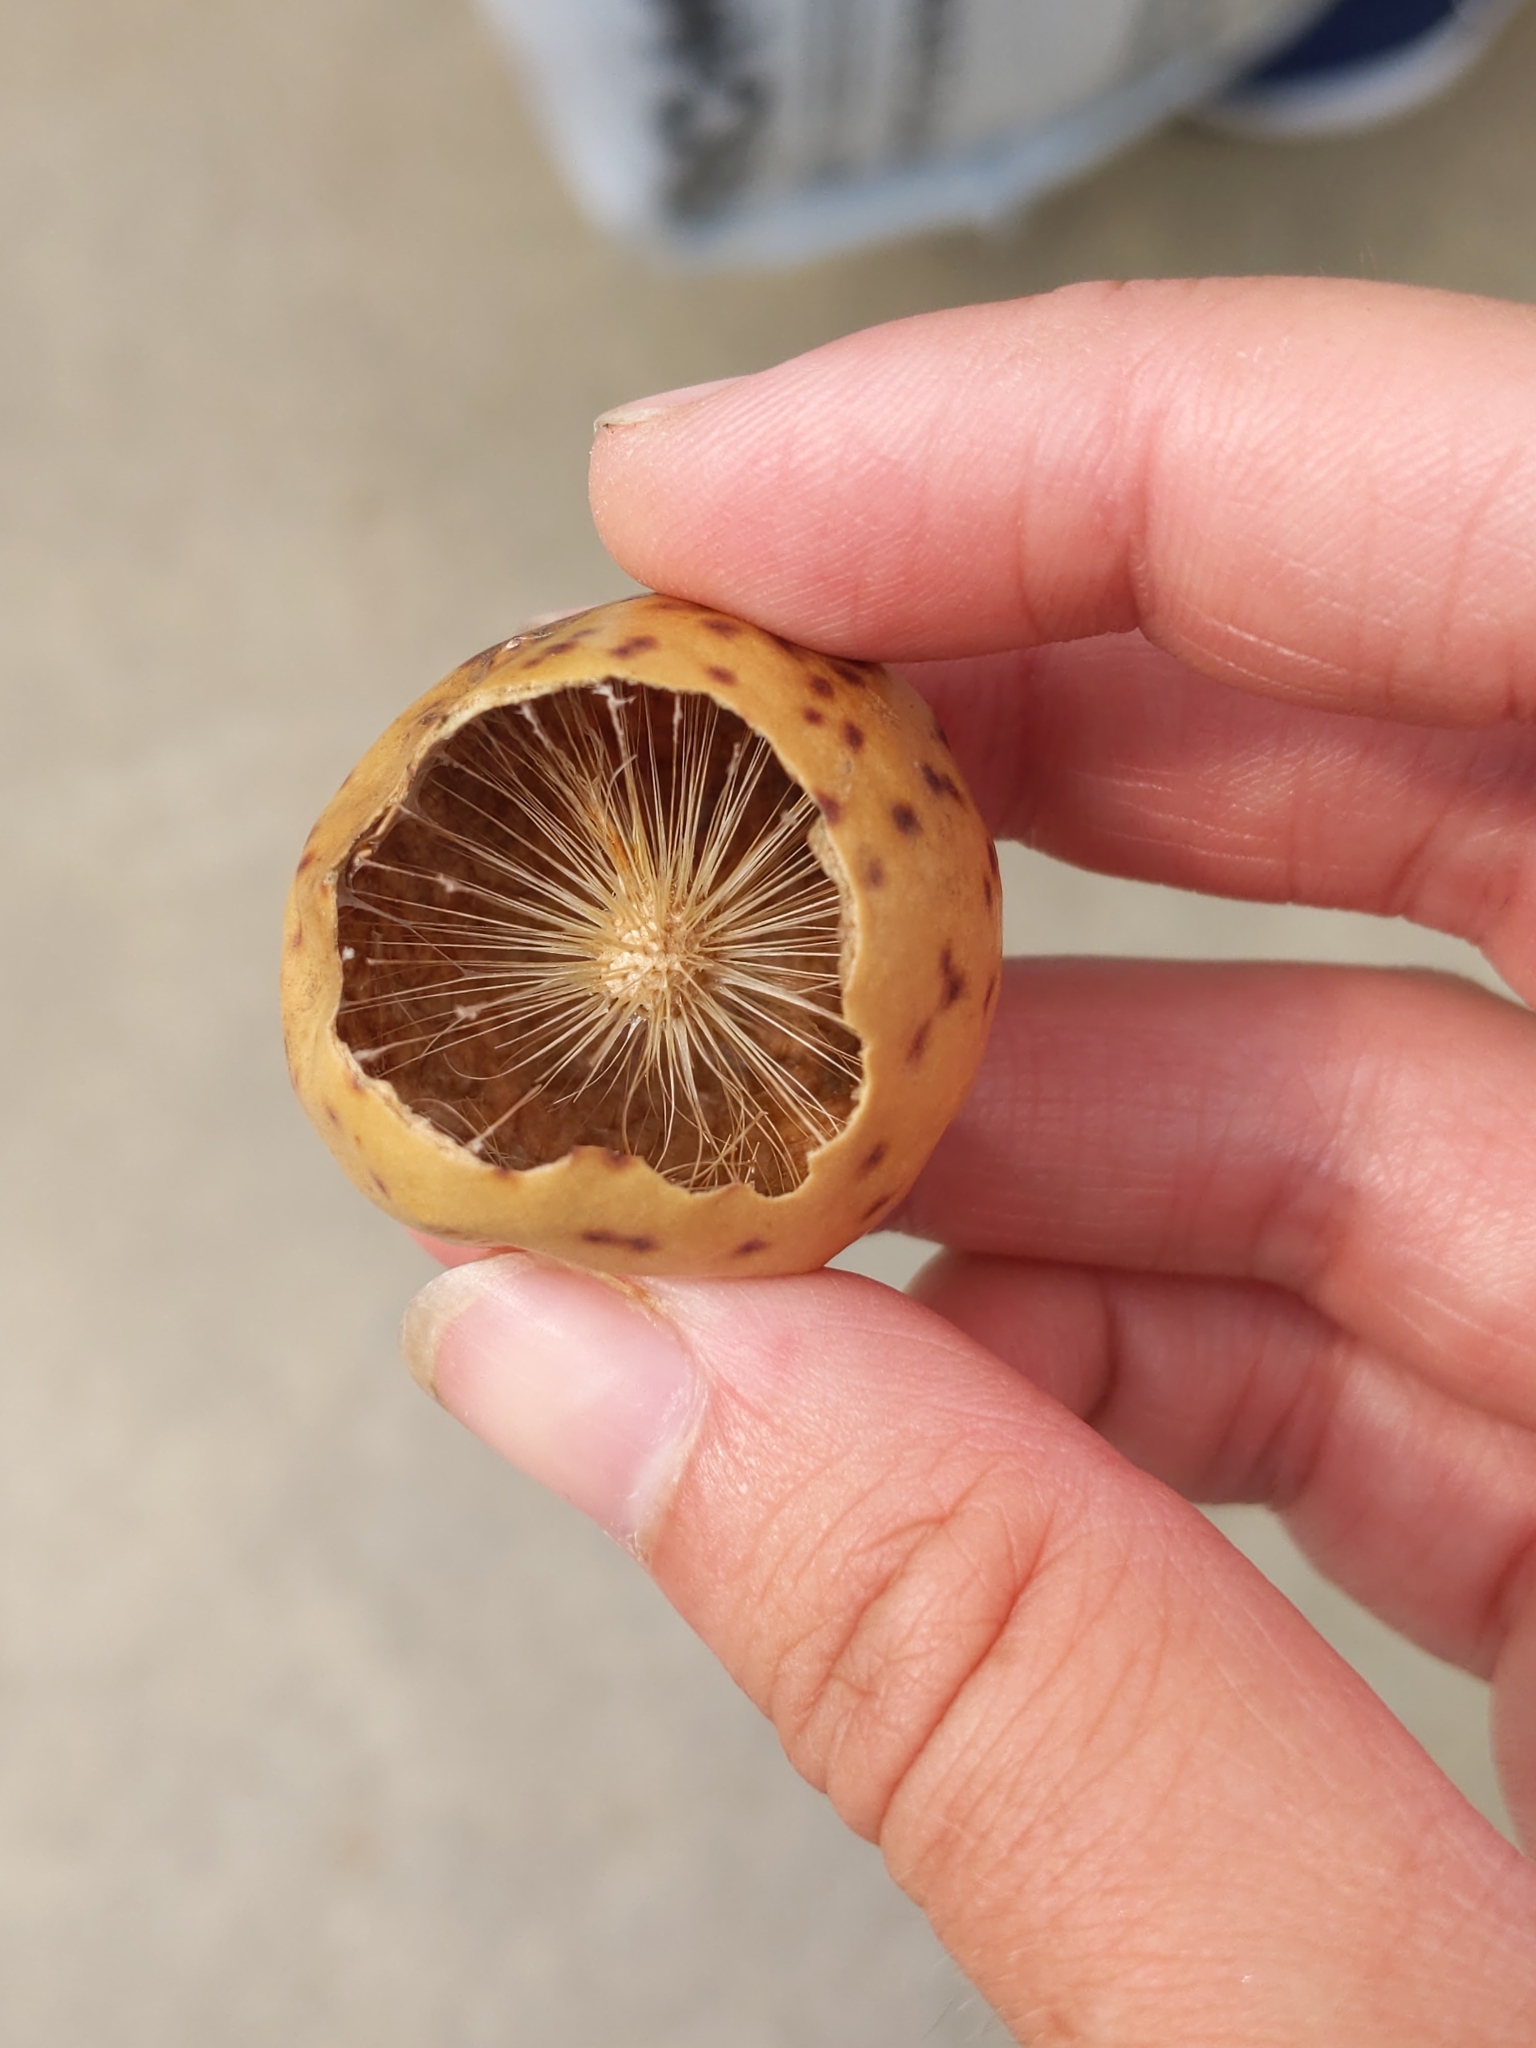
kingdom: Animalia
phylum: Arthropoda
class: Insecta
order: Hymenoptera
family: Cynipidae
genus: Amphibolips
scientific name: Amphibolips
